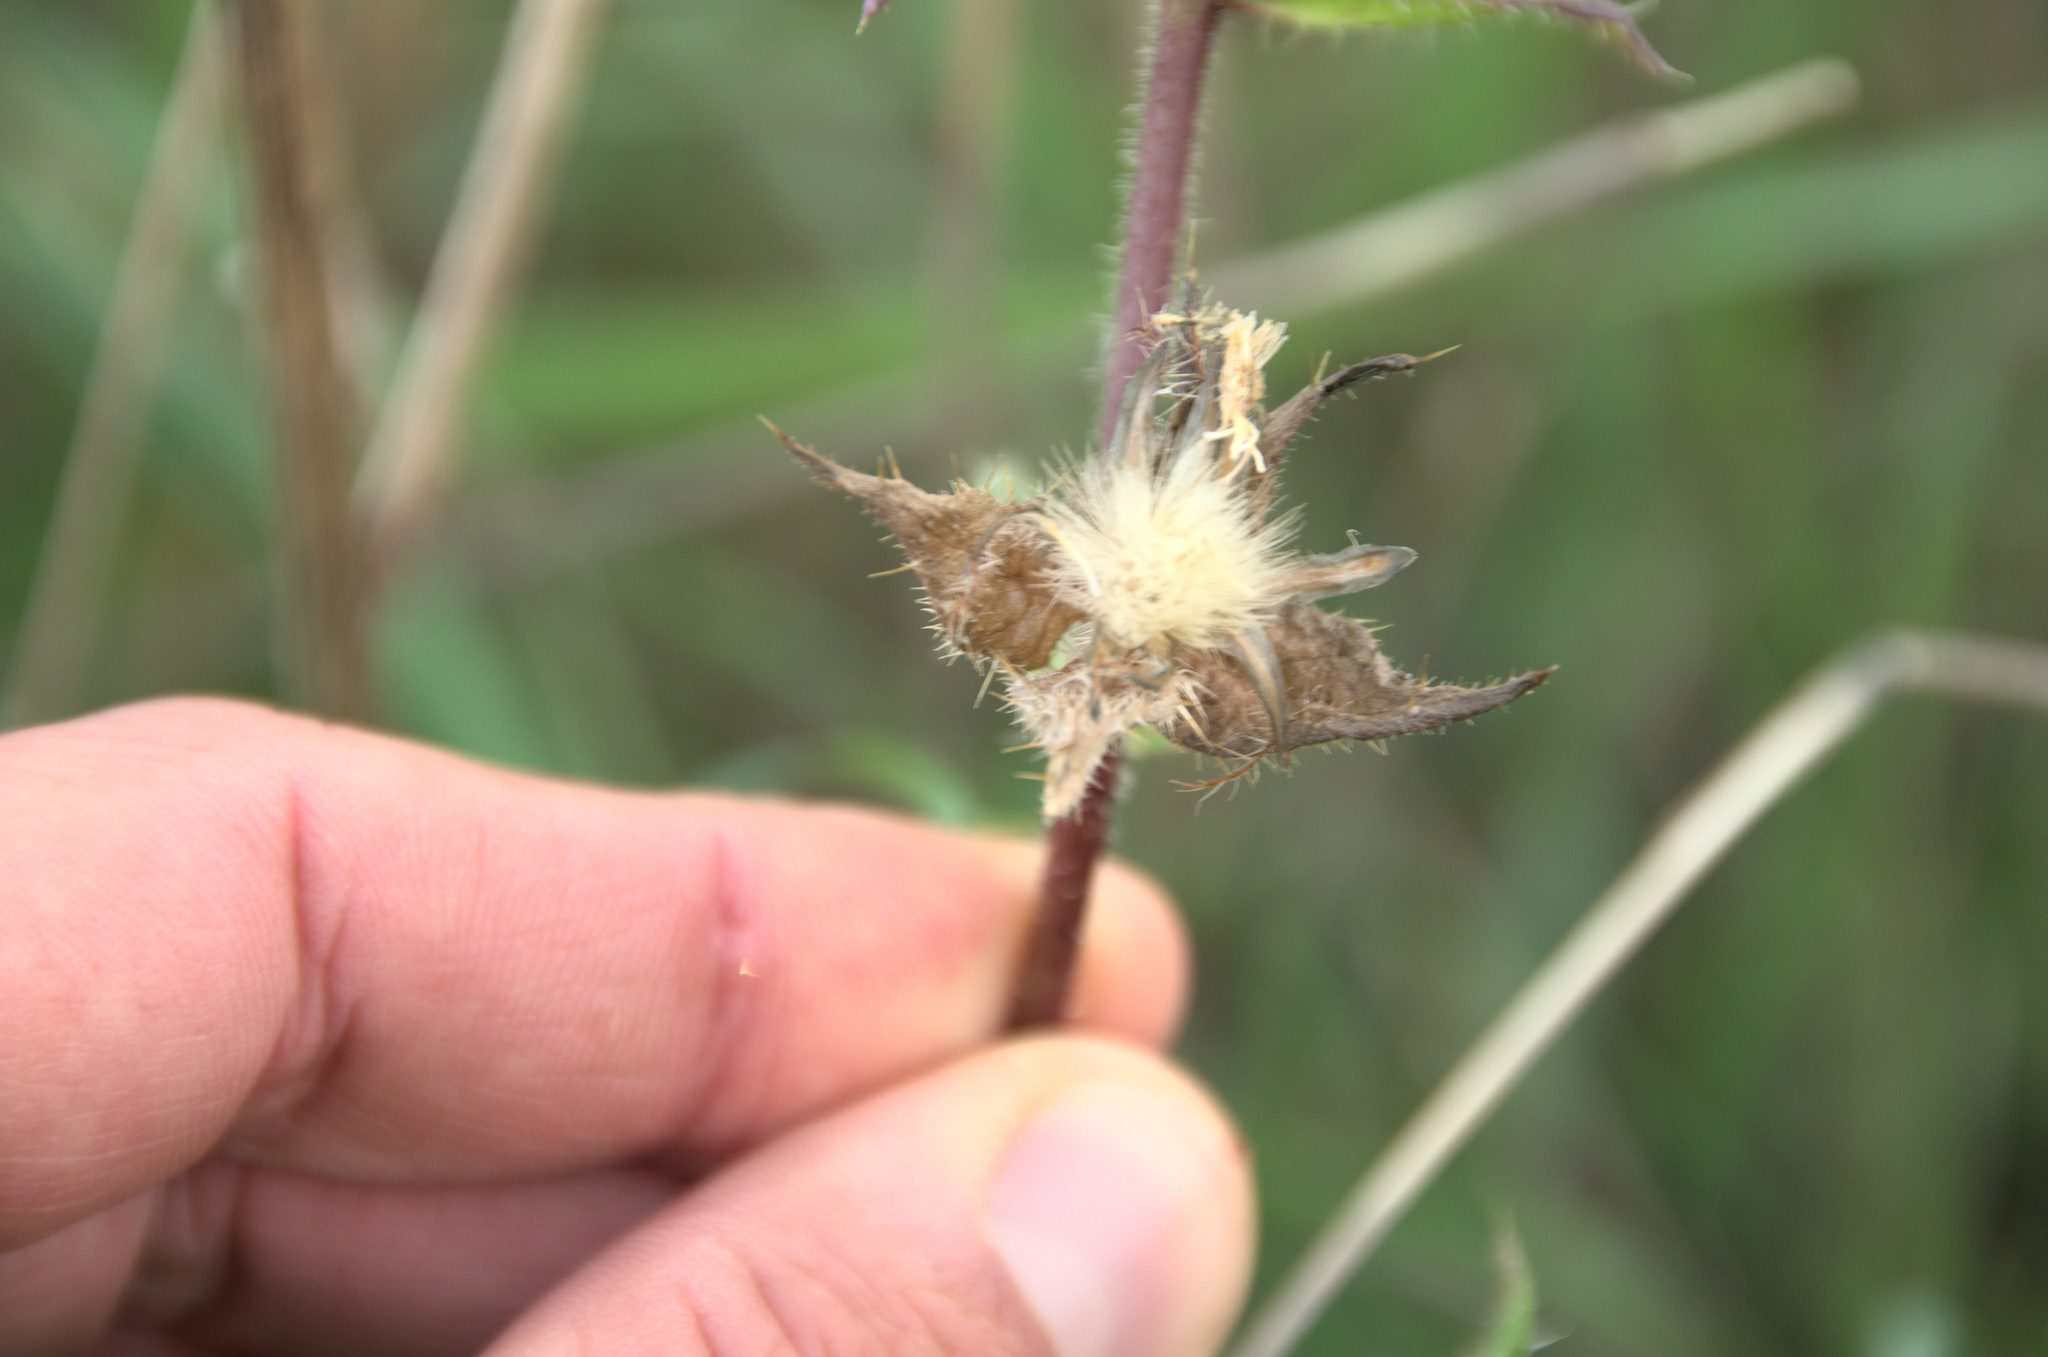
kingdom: Plantae
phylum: Tracheophyta
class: Magnoliopsida
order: Asterales
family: Asteraceae
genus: Helminthotheca
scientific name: Helminthotheca echioides
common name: Ox-tongue
